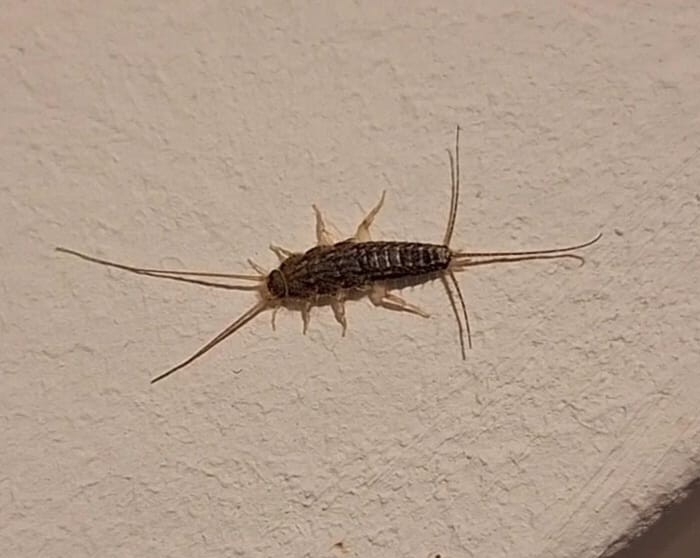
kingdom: Animalia
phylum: Arthropoda
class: Insecta
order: Zygentoma
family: Lepismatidae
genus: Ctenolepisma
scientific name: Ctenolepisma lineata
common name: Four-lined silverfish
